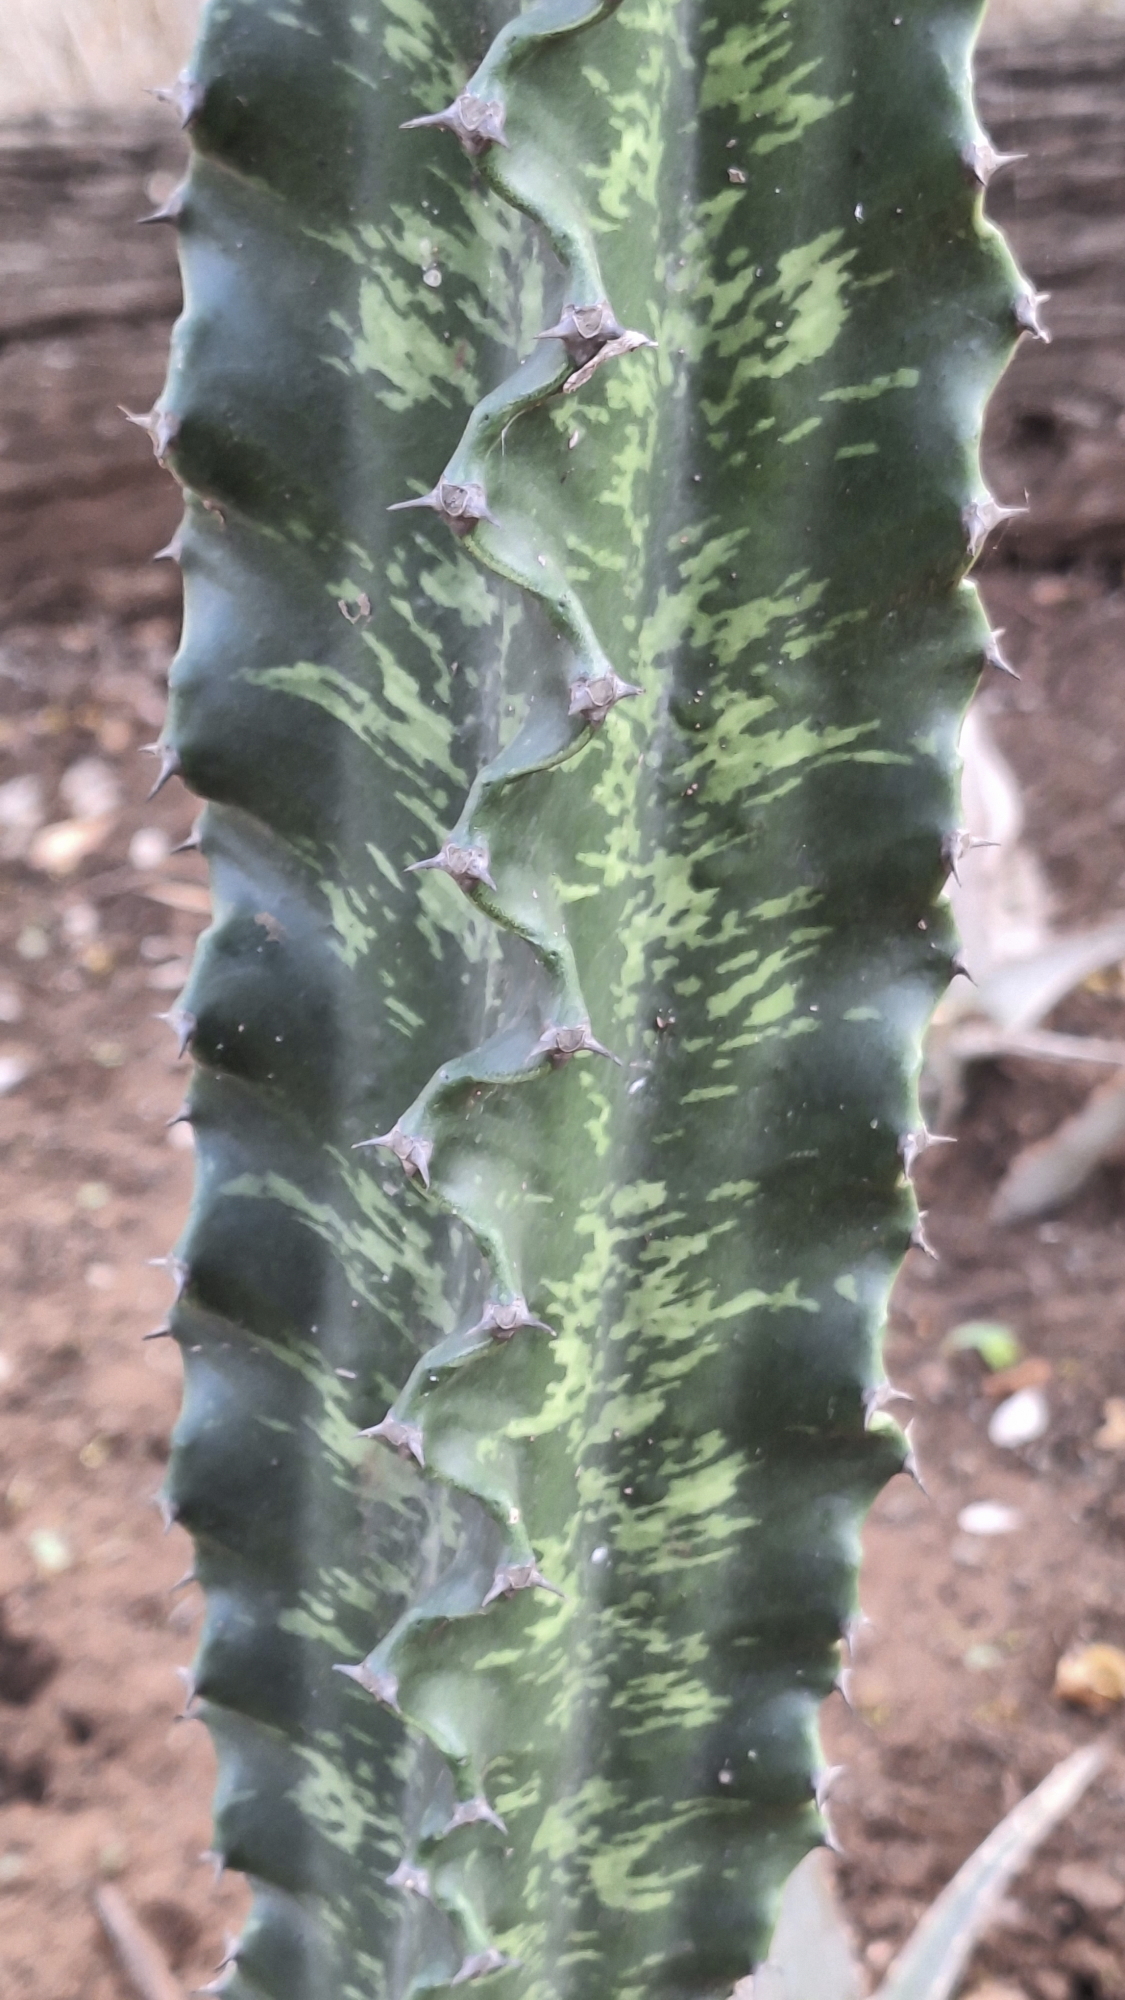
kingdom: Plantae
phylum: Tracheophyta
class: Magnoliopsida
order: Malpighiales
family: Euphorbiaceae
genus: Euphorbia
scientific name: Euphorbia ingens
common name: Cactus spurge
